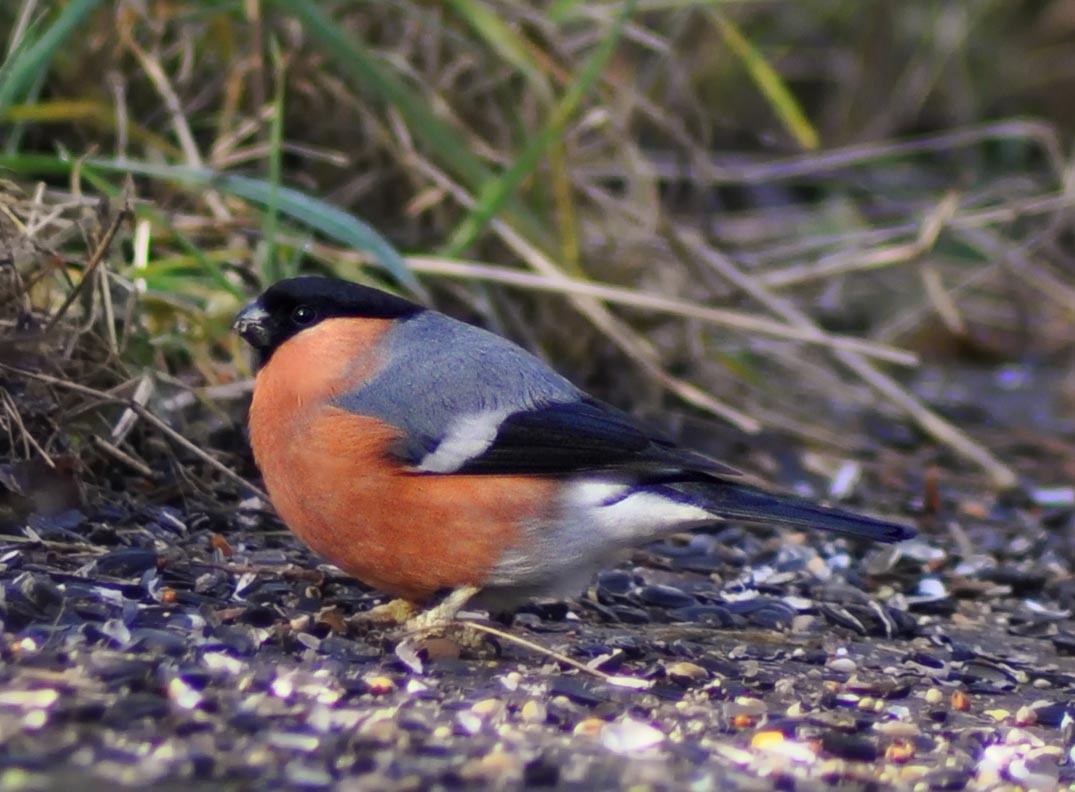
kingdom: Animalia
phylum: Chordata
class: Aves
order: Passeriformes
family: Fringillidae
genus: Pyrrhula
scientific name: Pyrrhula pyrrhula
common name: Eurasian bullfinch
